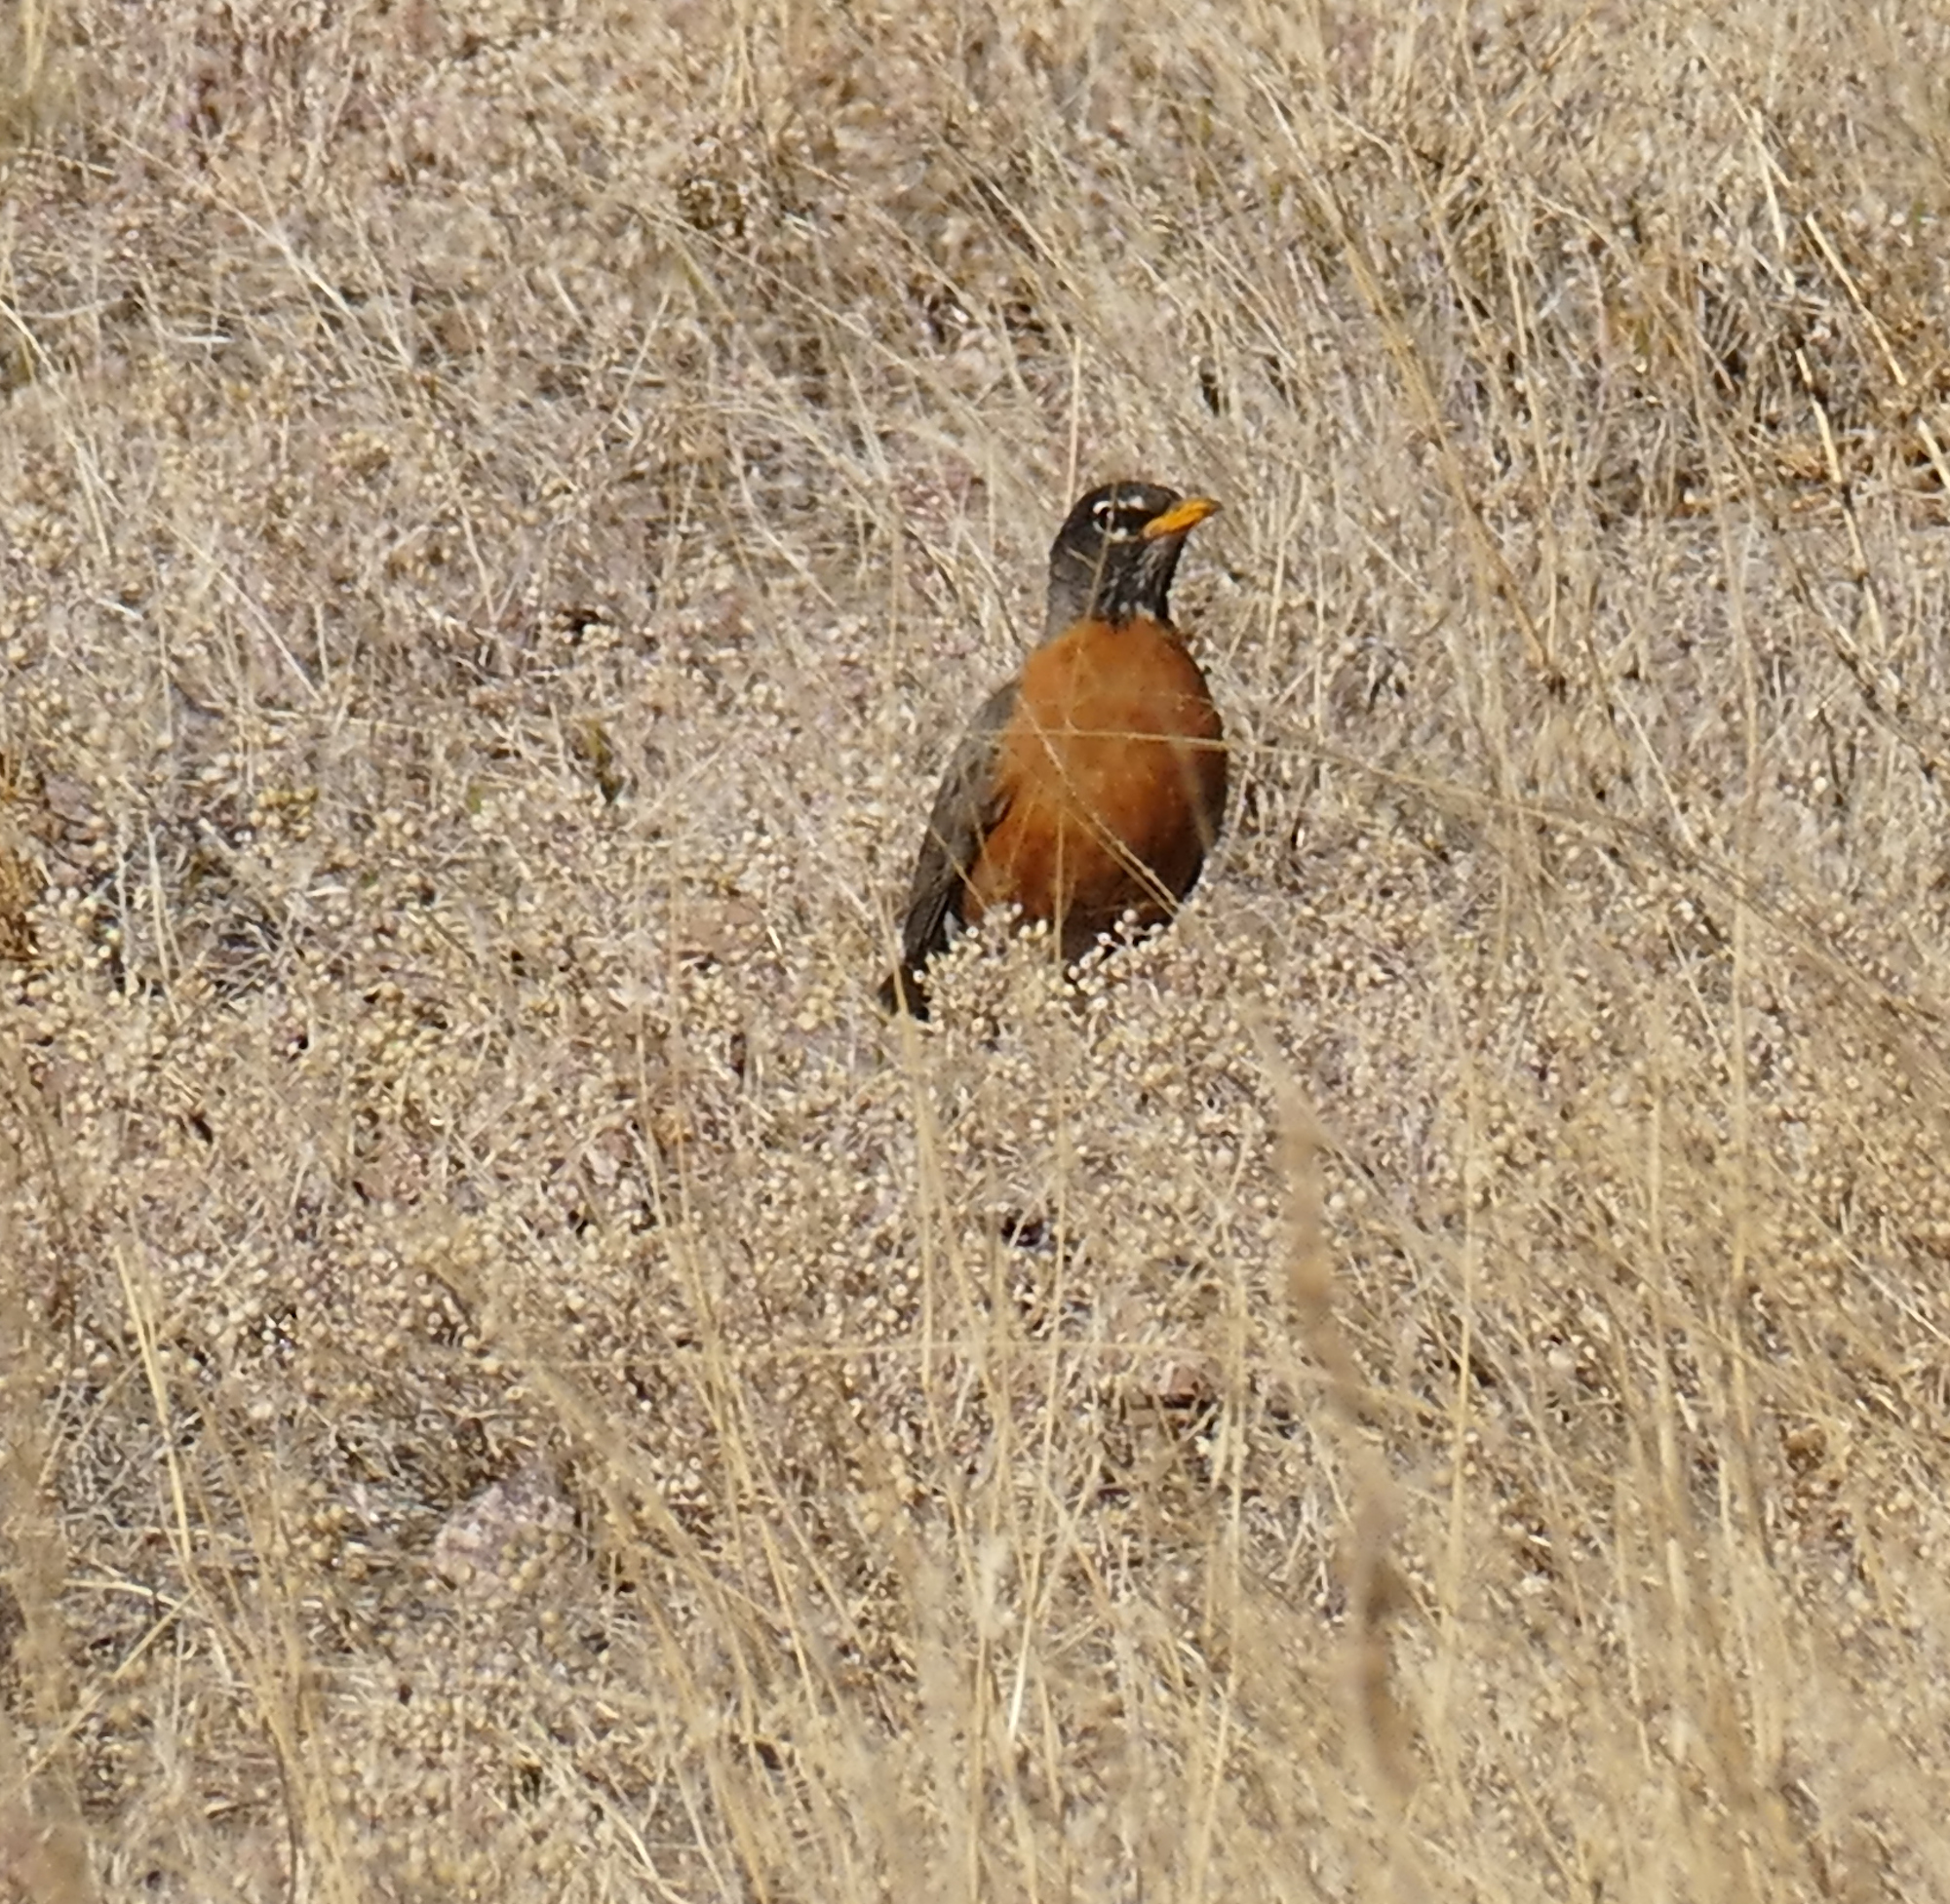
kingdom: Animalia
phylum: Chordata
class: Aves
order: Passeriformes
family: Turdidae
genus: Turdus
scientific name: Turdus migratorius
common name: American robin
